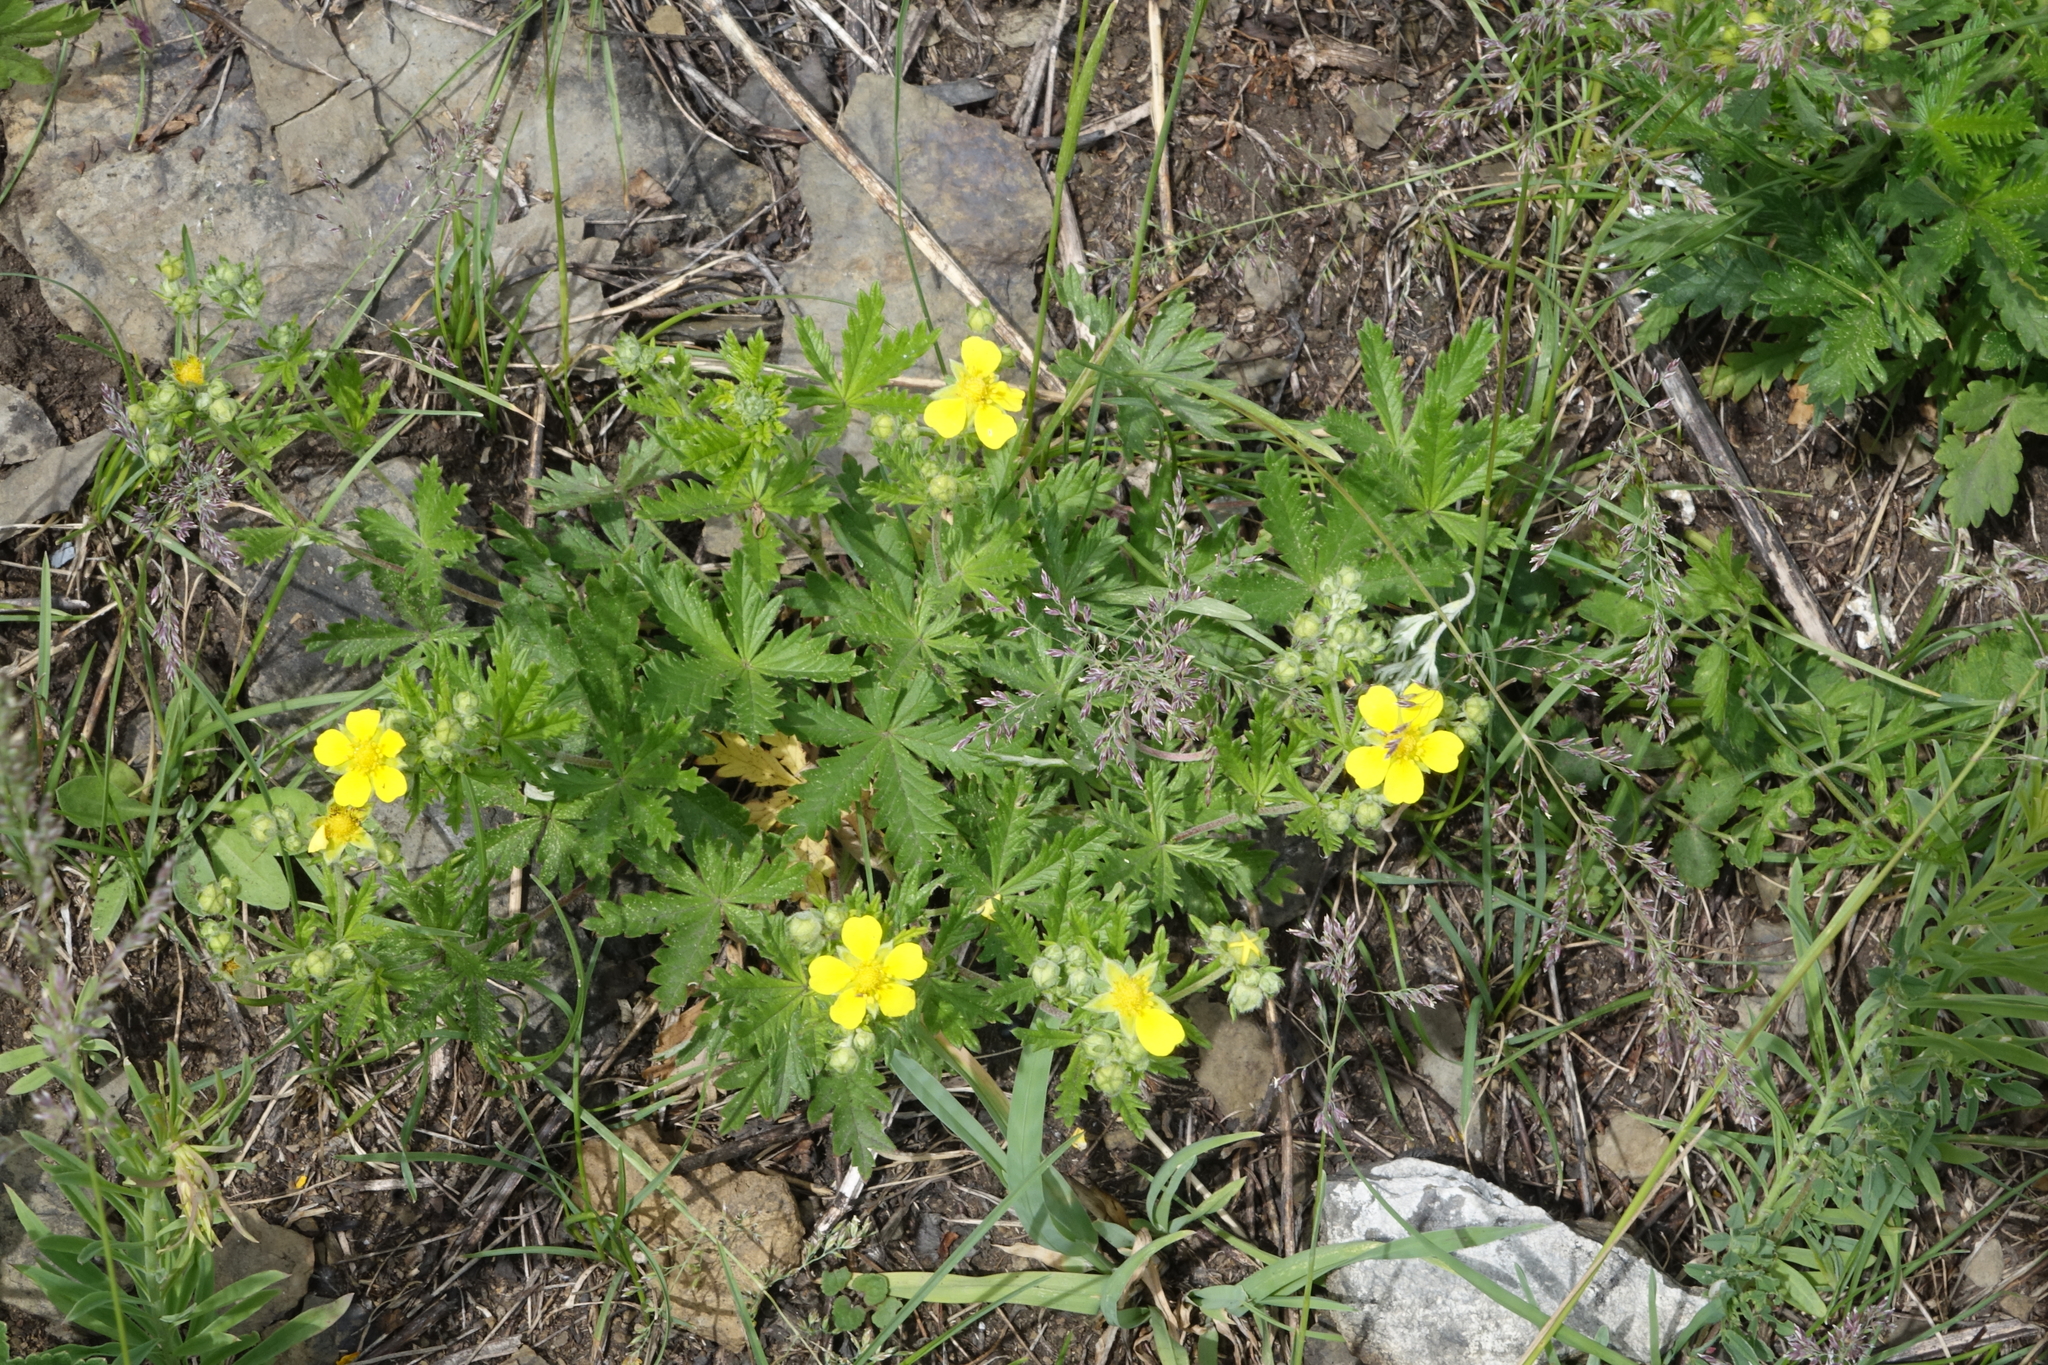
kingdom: Plantae
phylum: Tracheophyta
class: Magnoliopsida
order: Rosales
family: Rosaceae
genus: Potentilla
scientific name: Potentilla chrysantha
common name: Thuringian cinquefoil
